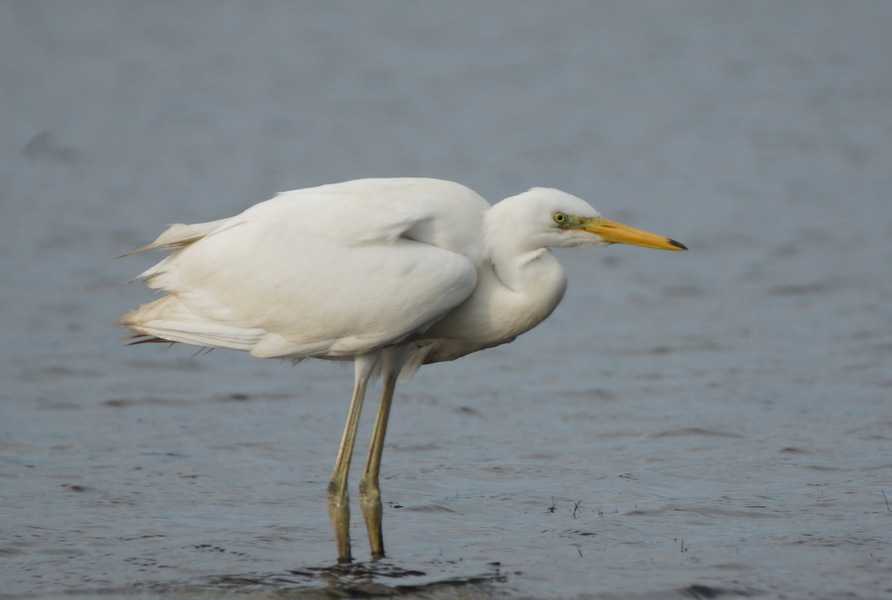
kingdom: Animalia
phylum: Chordata
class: Aves
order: Pelecaniformes
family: Ardeidae
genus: Ardea
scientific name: Ardea alba
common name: Great egret
